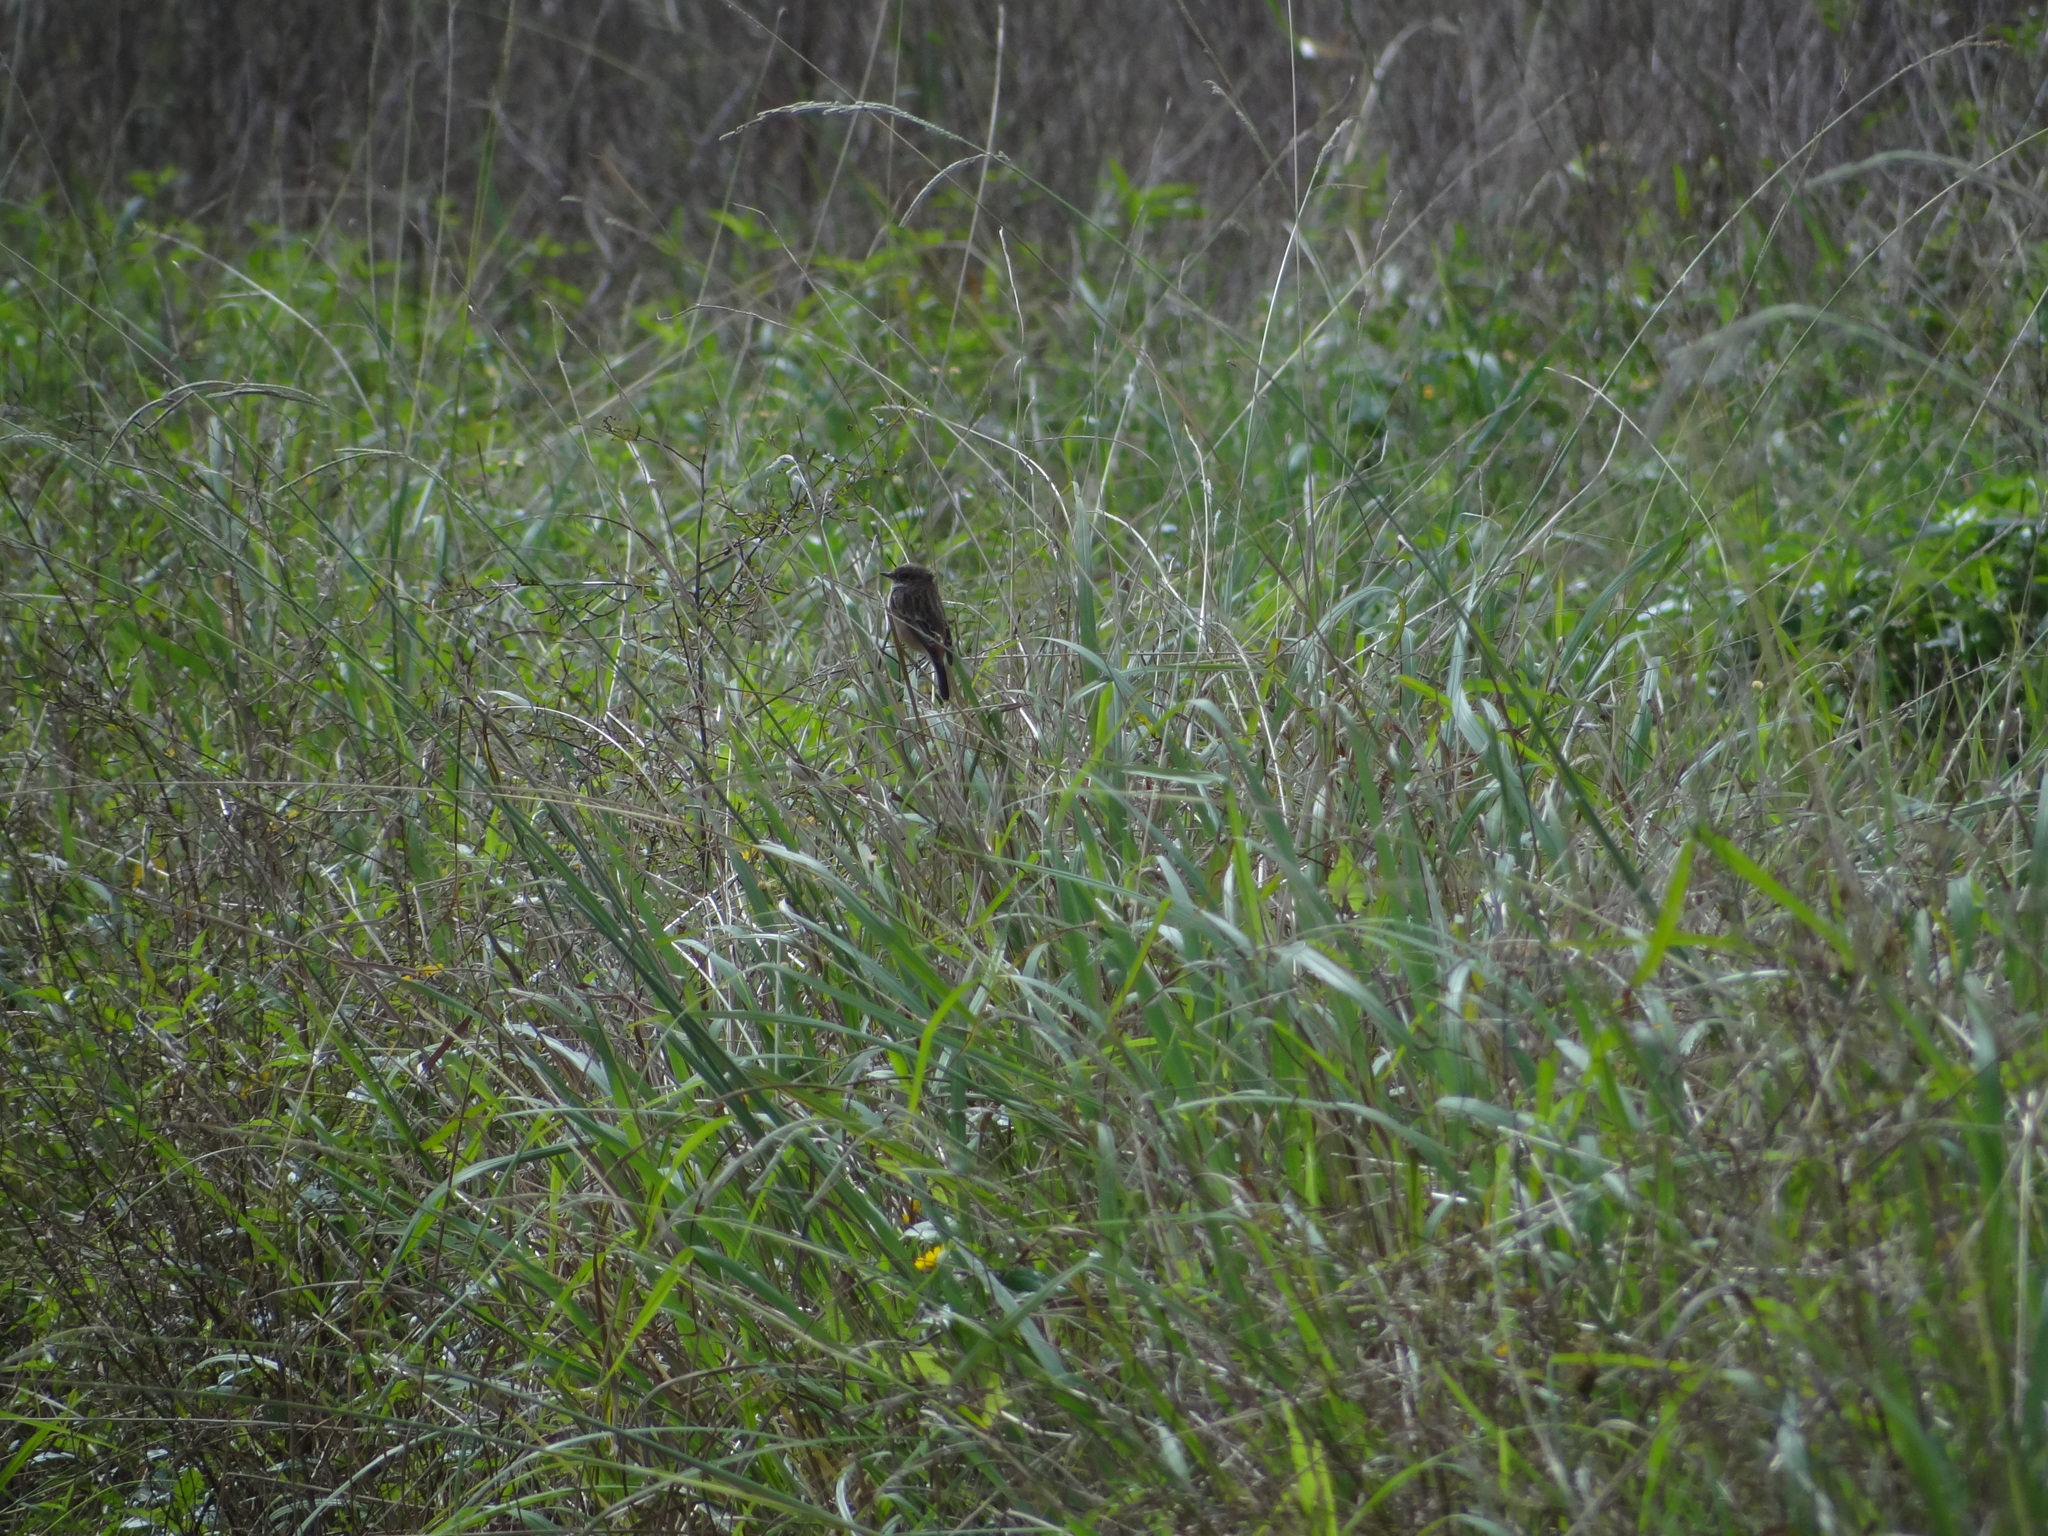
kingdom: Animalia
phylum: Chordata
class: Aves
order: Passeriformes
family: Muscicapidae
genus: Saxicola
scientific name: Saxicola stejnegeri
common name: Stejneger's stonechat
